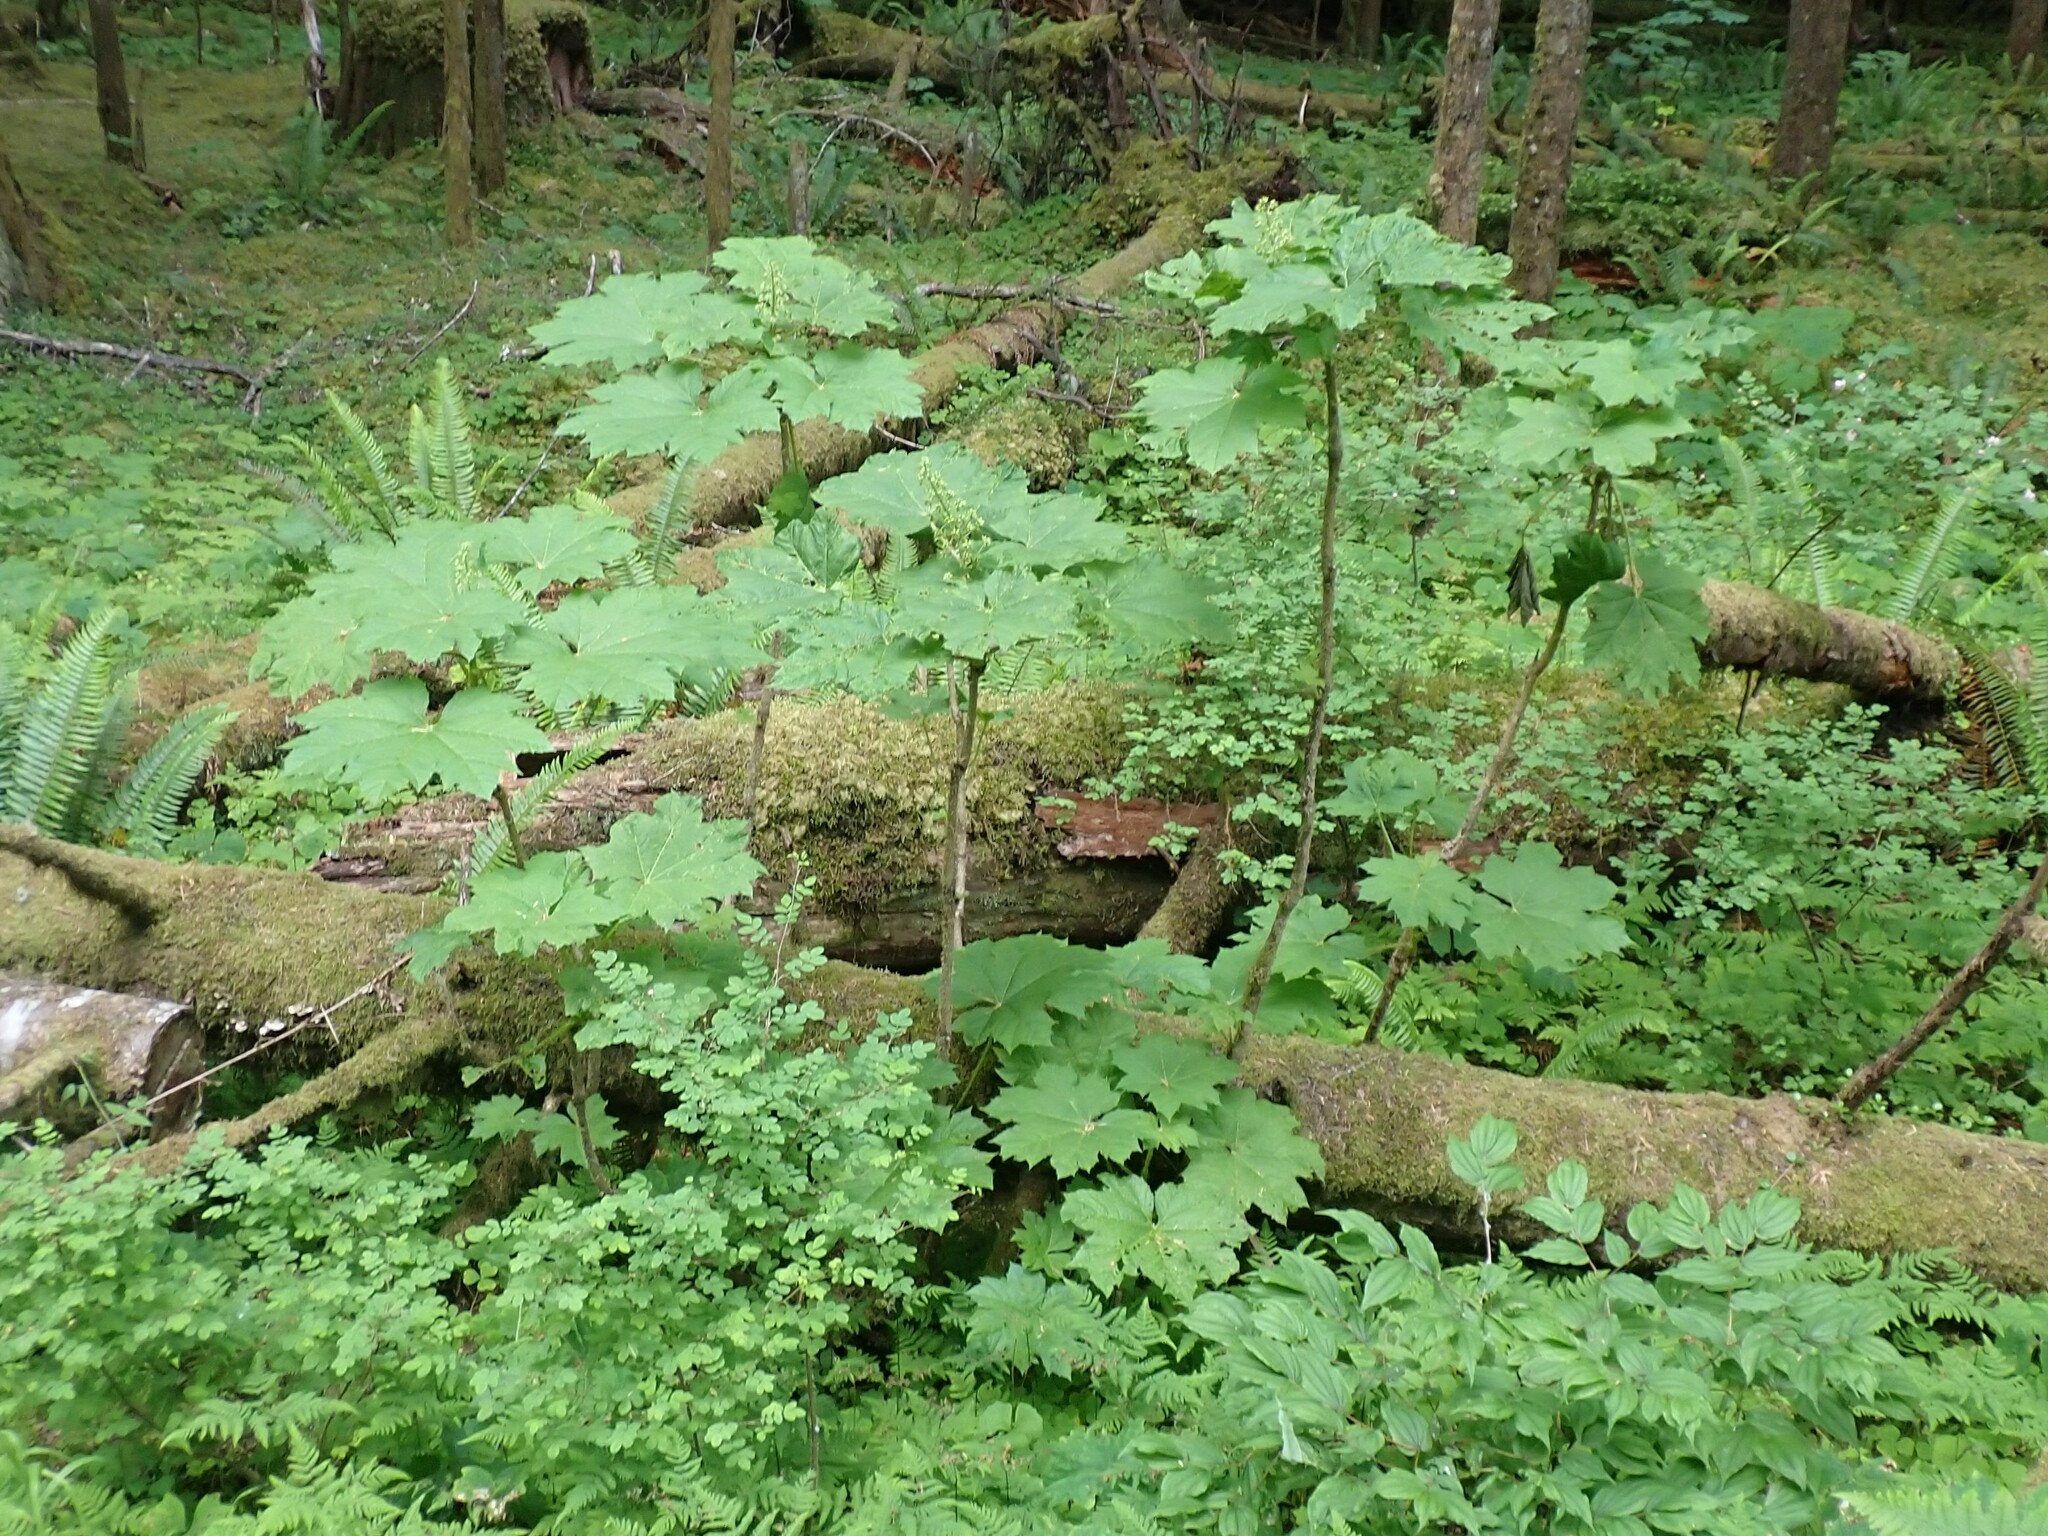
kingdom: Plantae
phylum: Tracheophyta
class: Magnoliopsida
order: Apiales
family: Araliaceae
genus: Oplopanax
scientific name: Oplopanax horridus
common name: Devil's walking-stick
